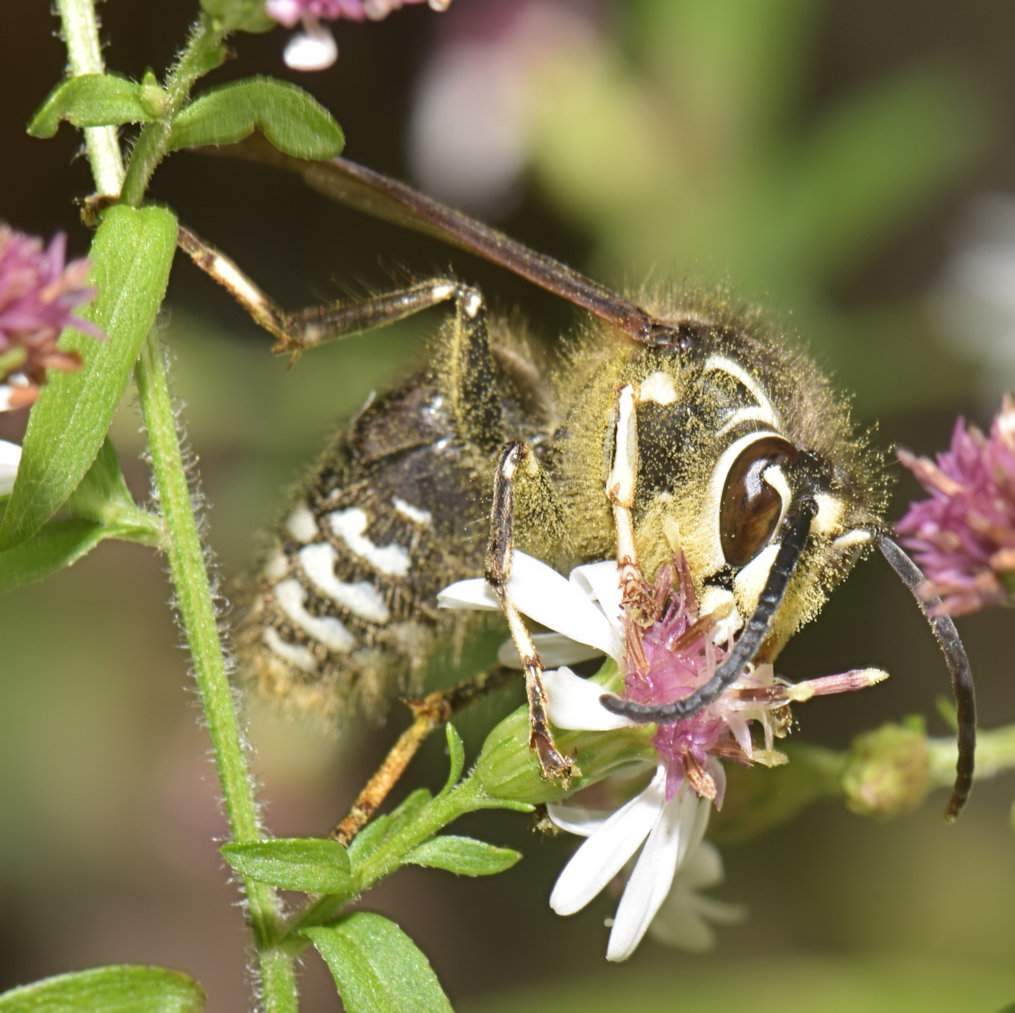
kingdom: Animalia
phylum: Arthropoda
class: Insecta
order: Hymenoptera
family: Vespidae
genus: Dolichovespula
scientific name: Dolichovespula maculata
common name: Bald-faced hornet
